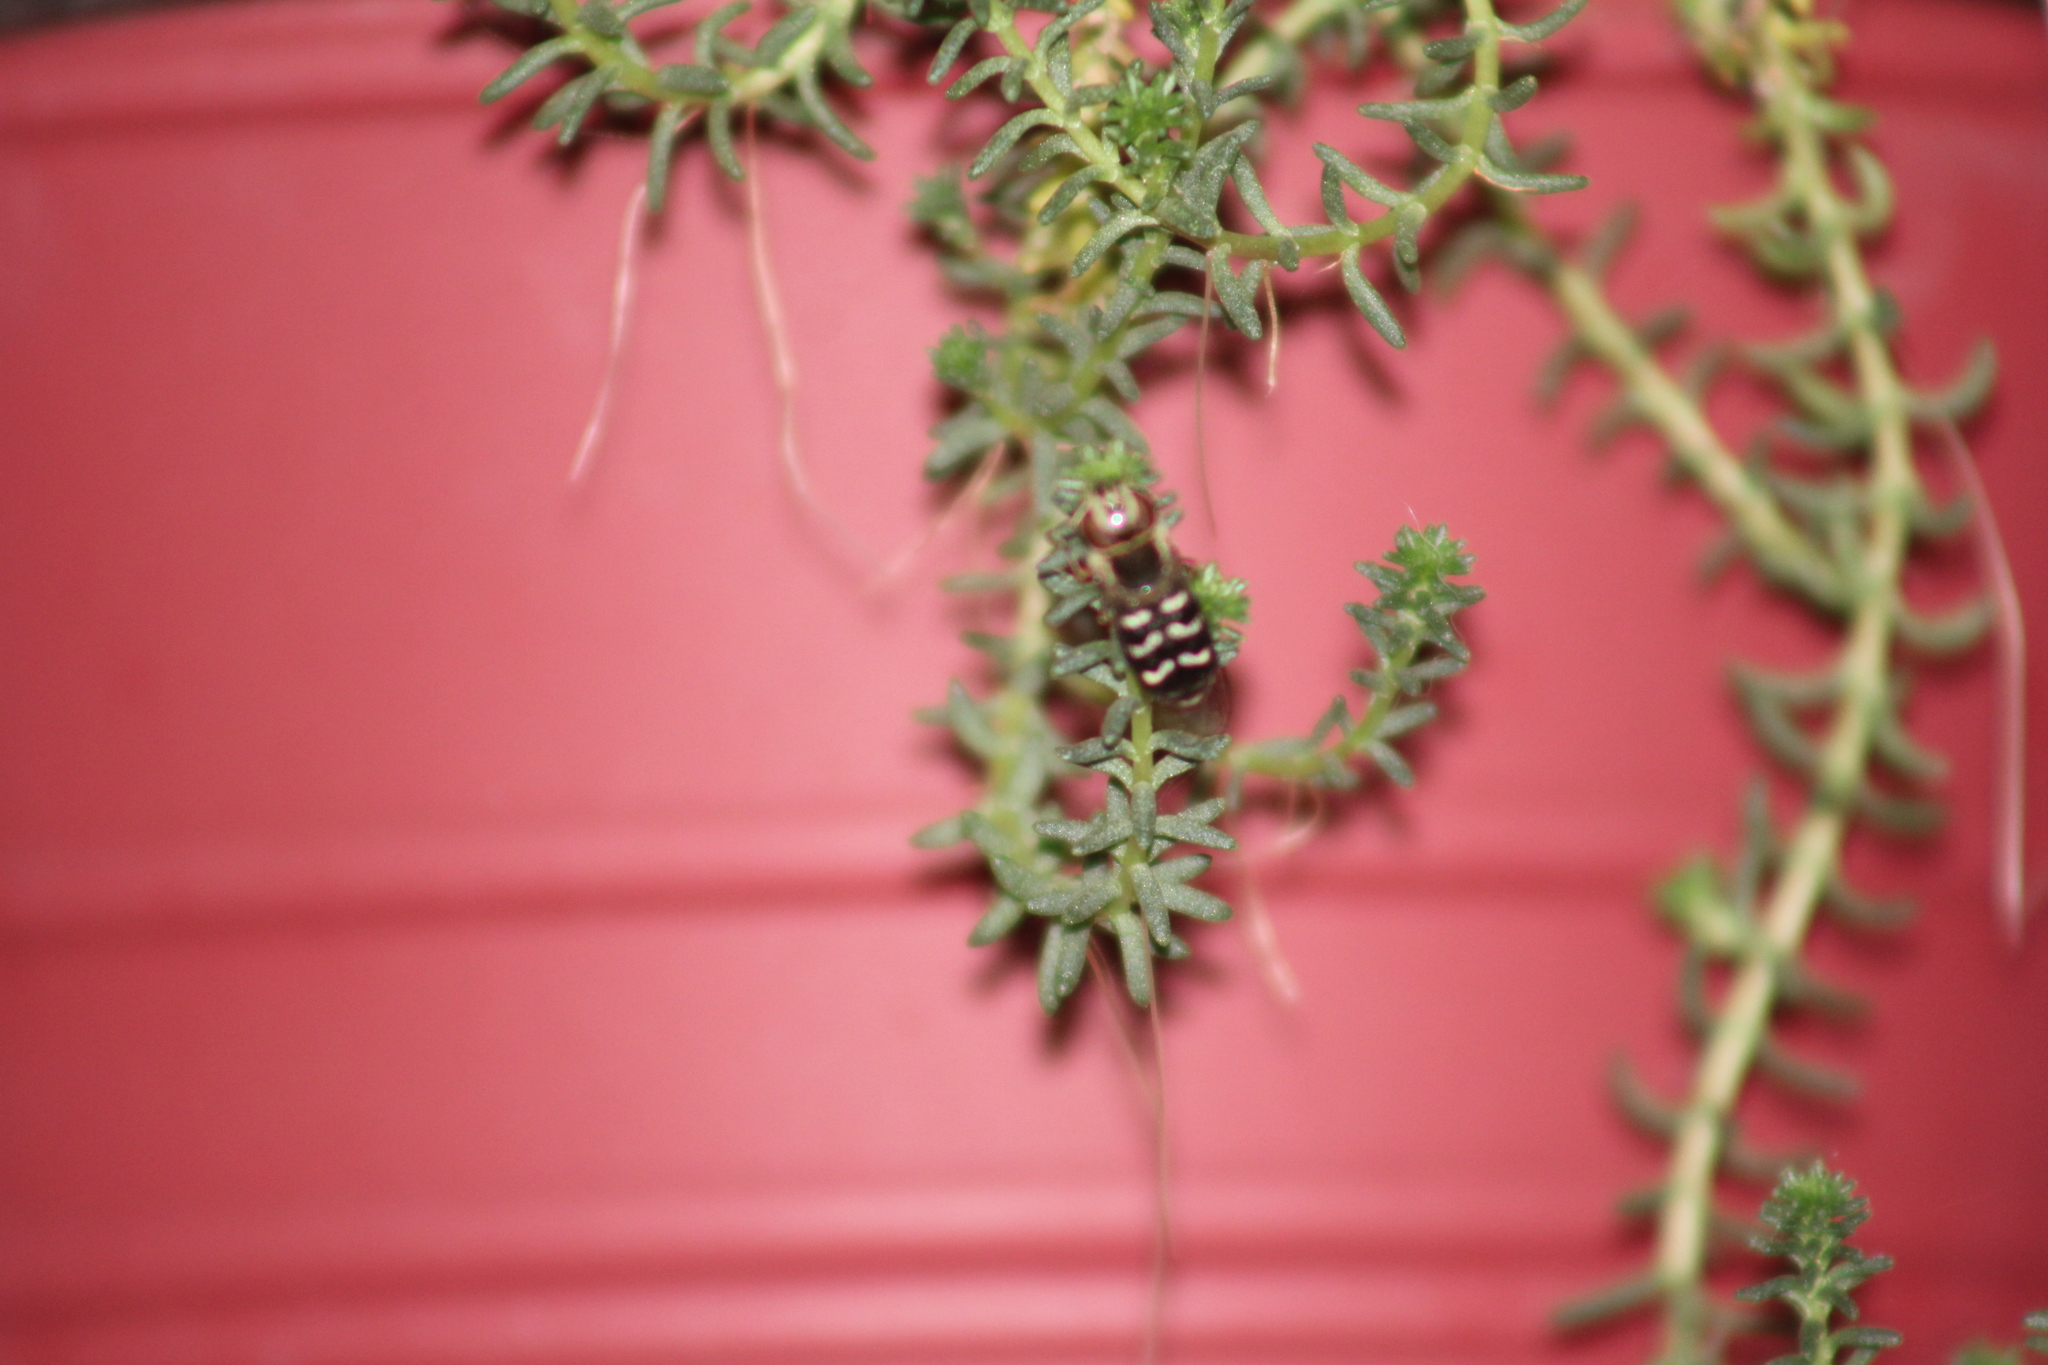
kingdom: Animalia
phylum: Arthropoda
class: Insecta
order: Diptera
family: Syrphidae
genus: Scaeva
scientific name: Scaeva affinis
